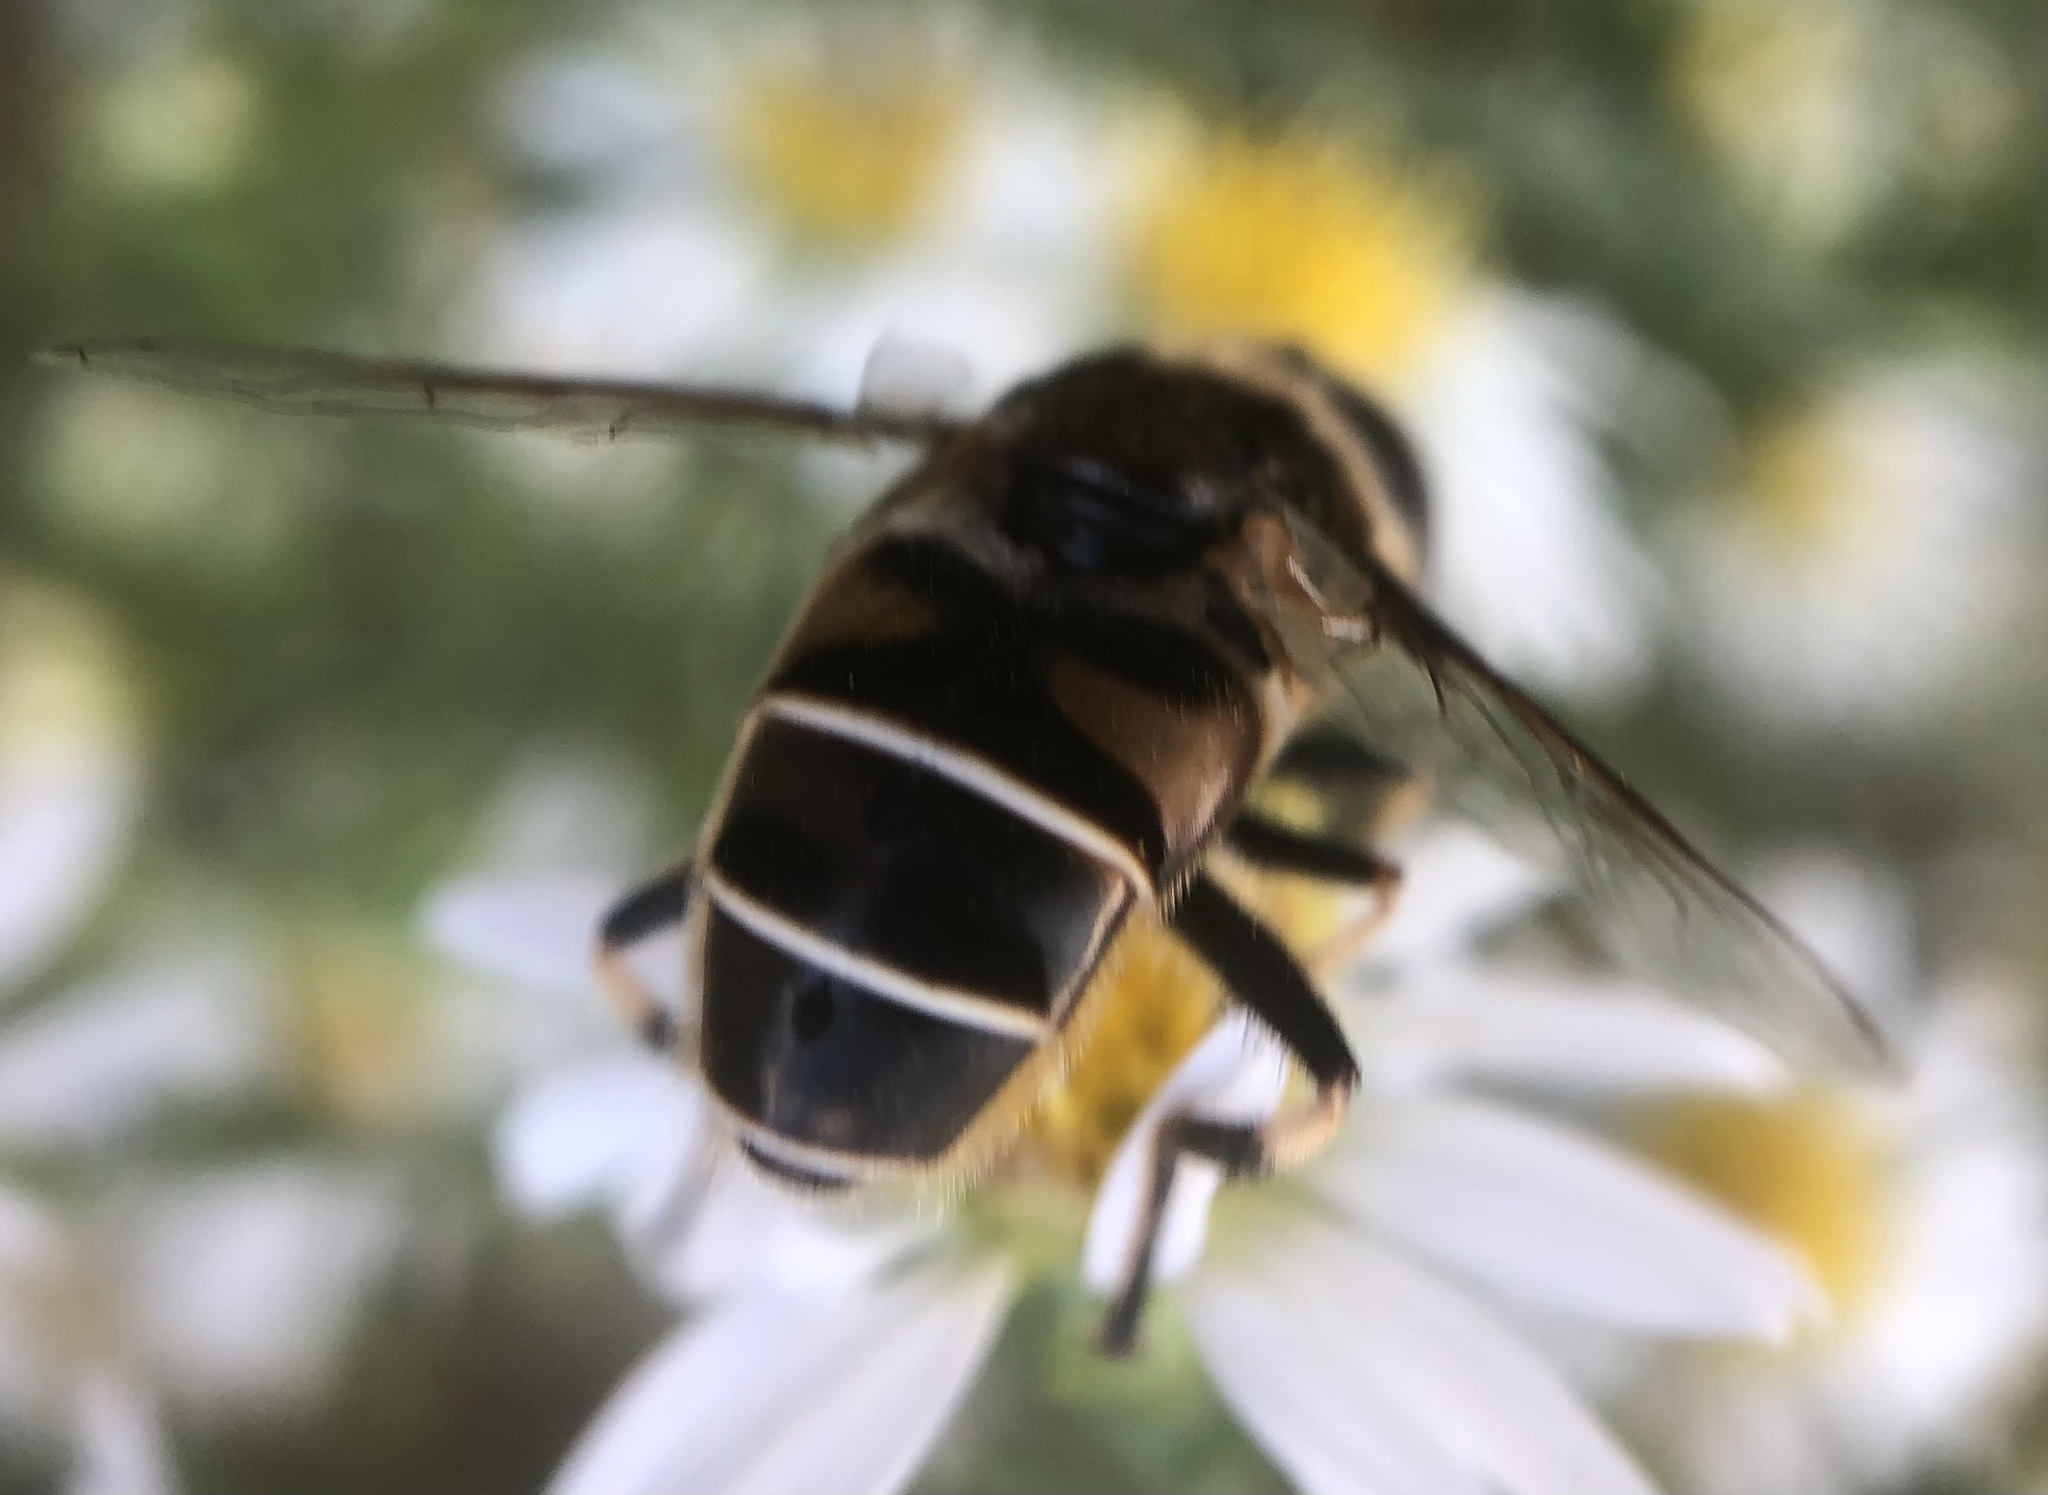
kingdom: Animalia
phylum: Arthropoda
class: Insecta
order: Diptera
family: Syrphidae
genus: Eristalis
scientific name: Eristalis dimidiata
